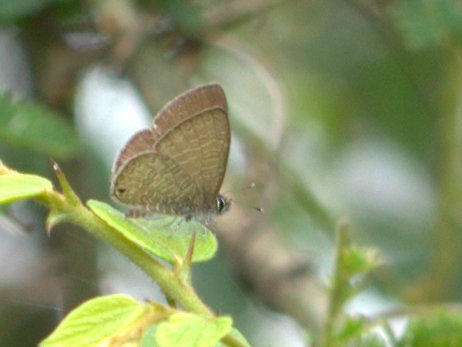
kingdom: Animalia
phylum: Arthropoda
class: Insecta
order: Lepidoptera
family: Lycaenidae
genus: Prosotas
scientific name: Prosotas nora
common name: Common line blue
